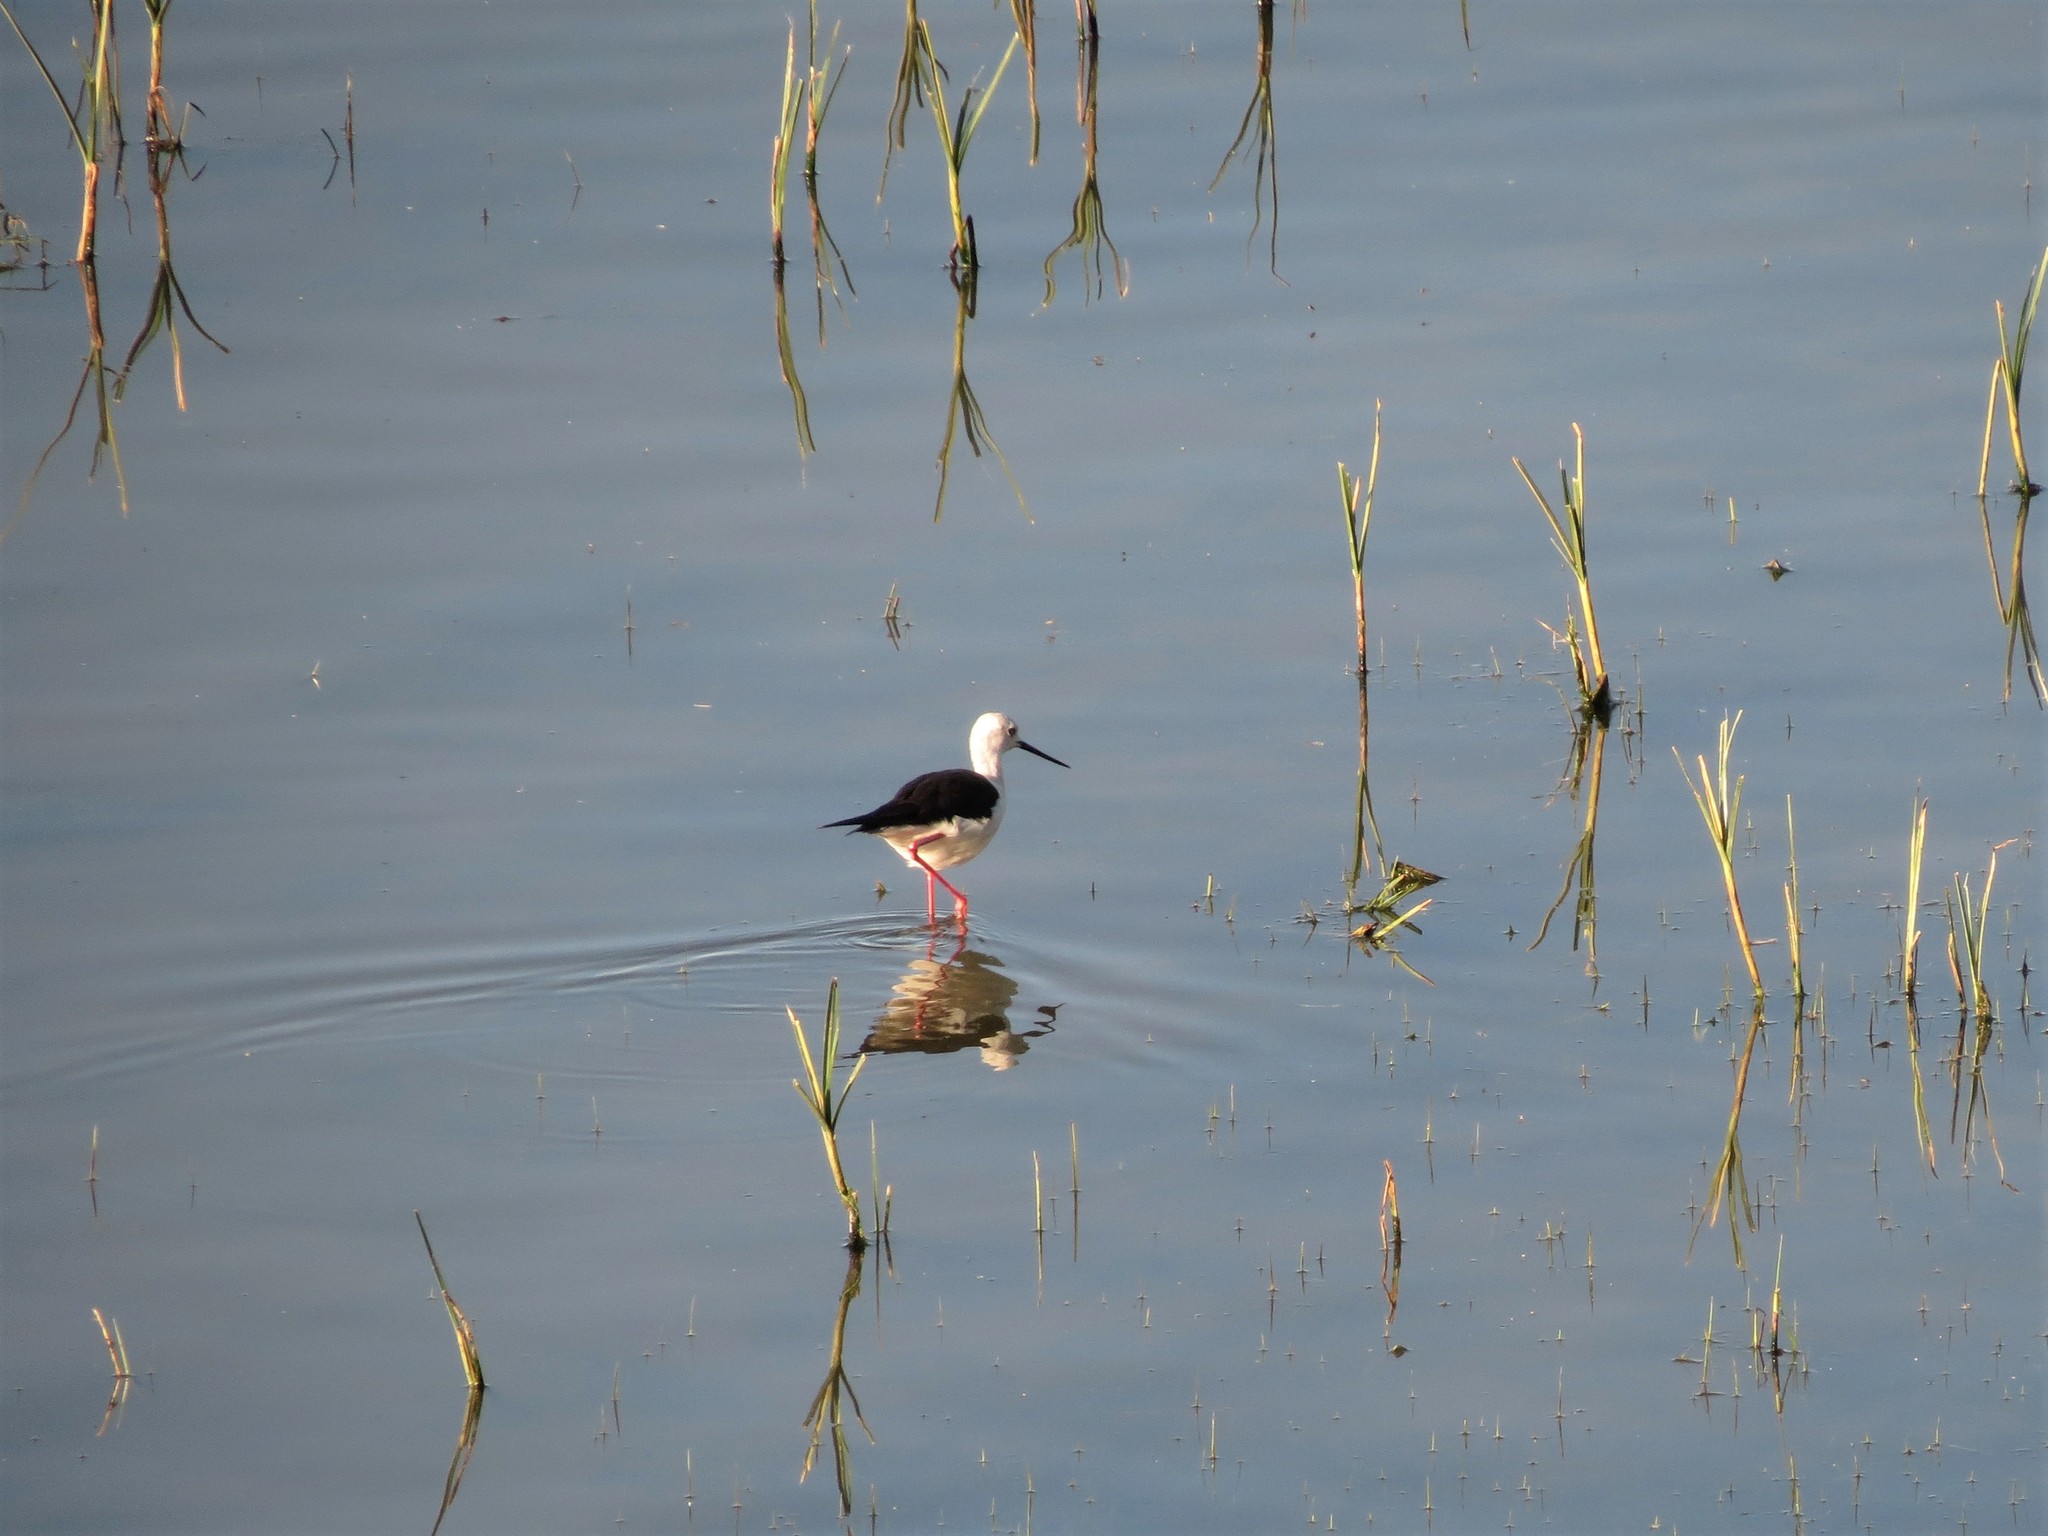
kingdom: Animalia
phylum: Chordata
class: Aves
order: Charadriiformes
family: Recurvirostridae
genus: Himantopus
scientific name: Himantopus himantopus
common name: Black-winged stilt
